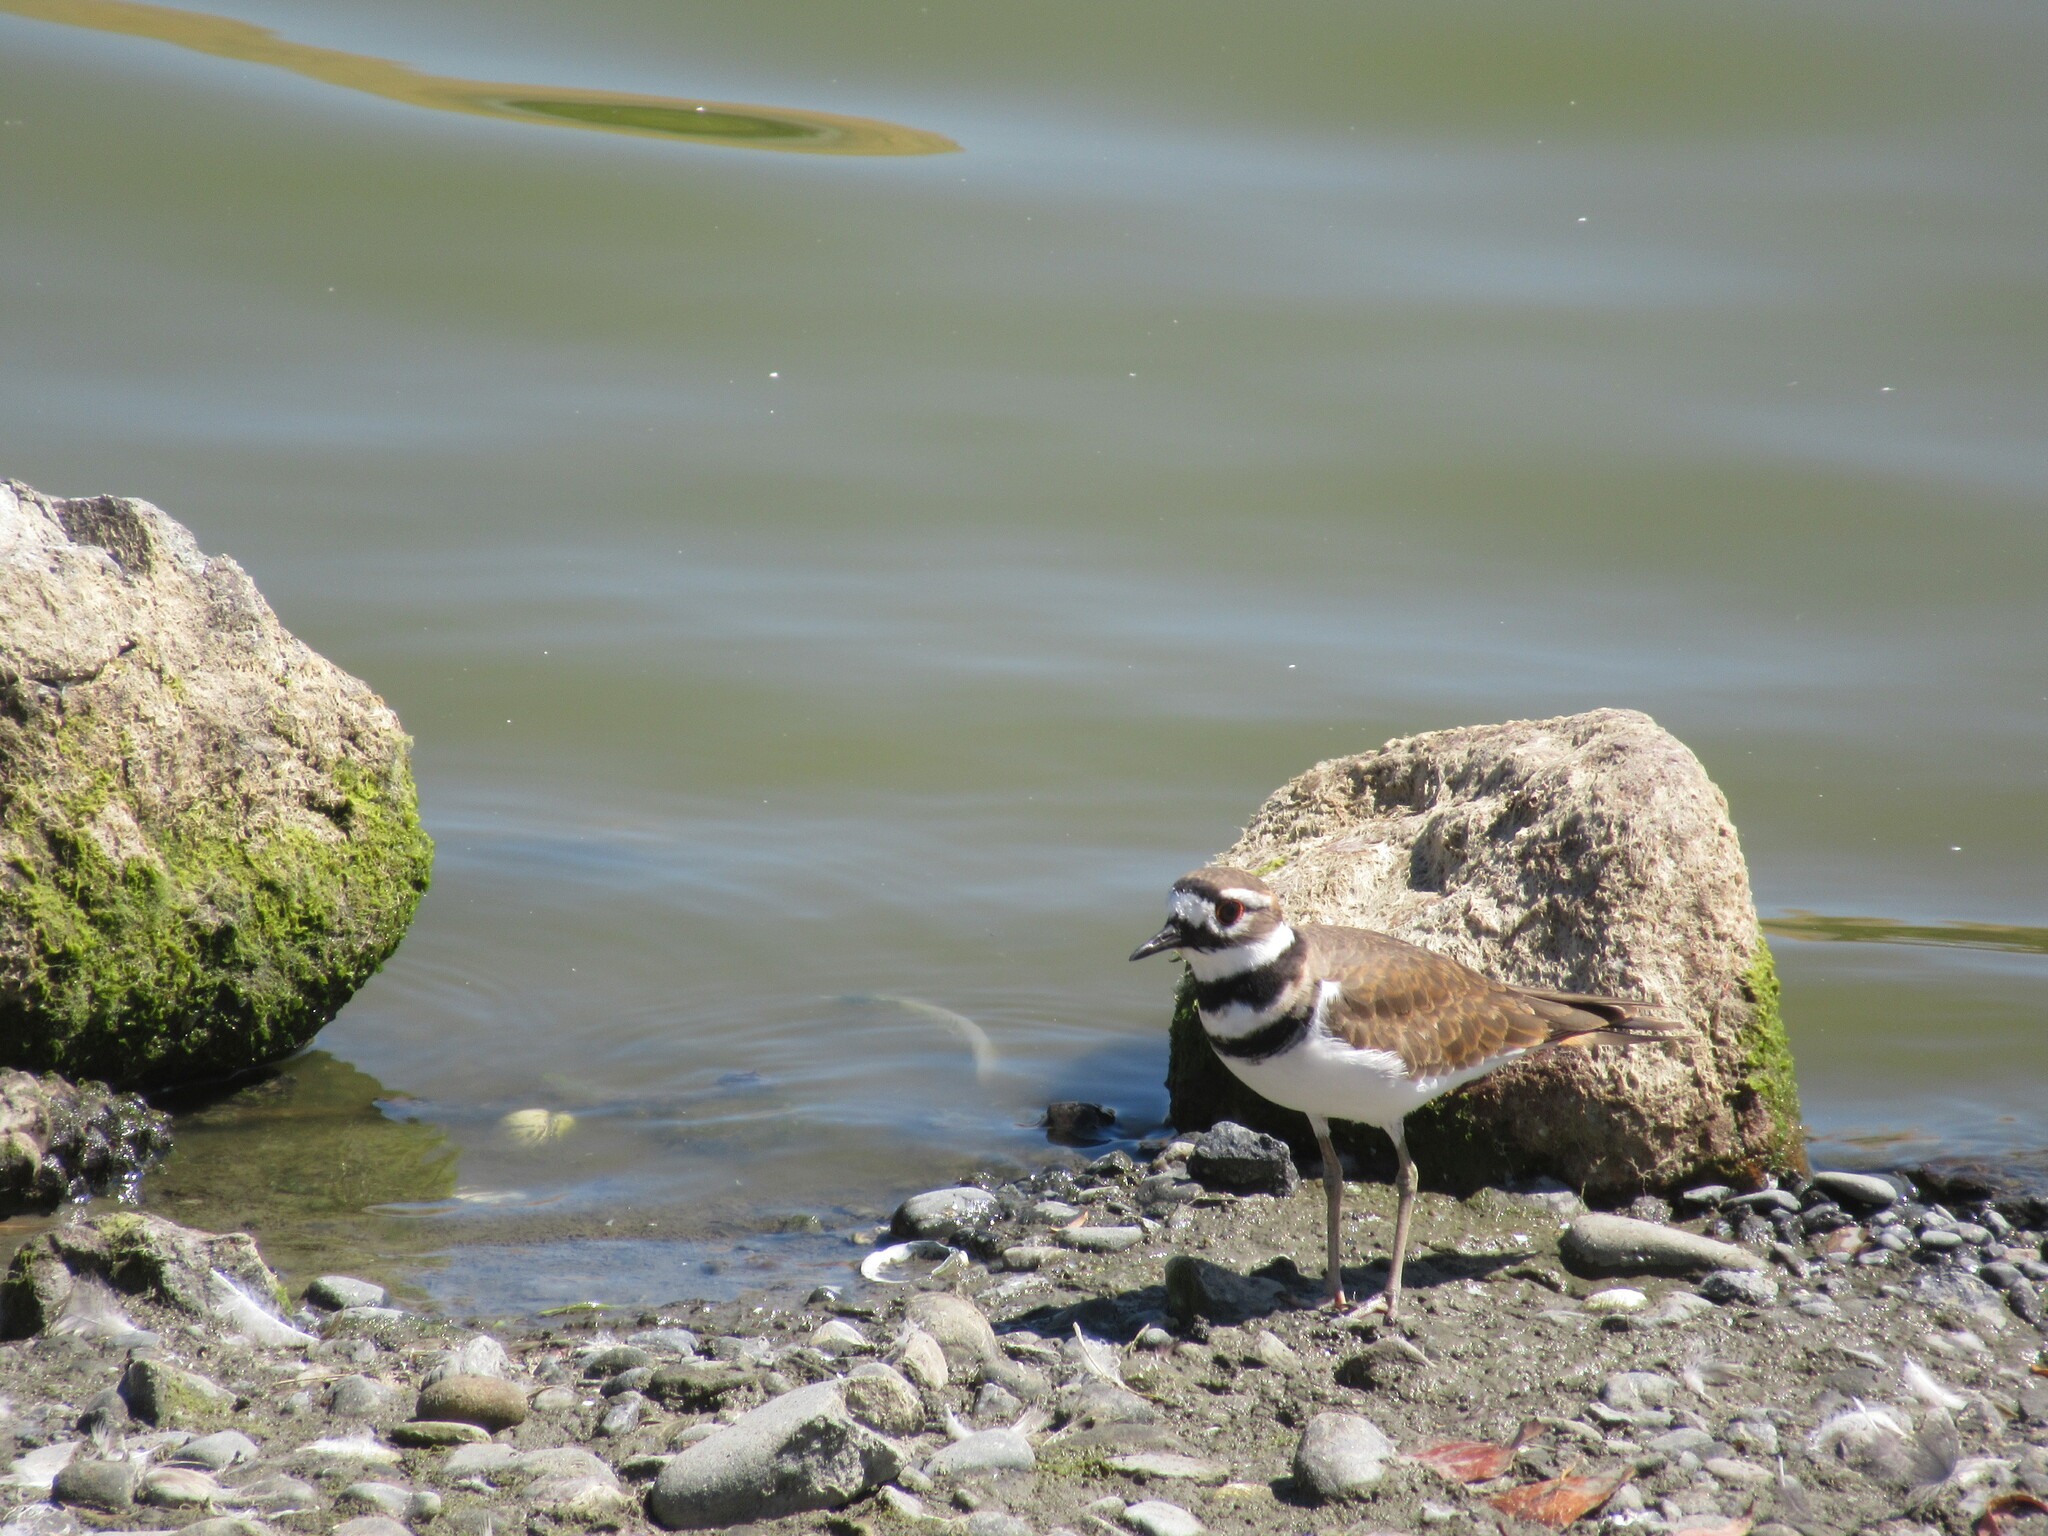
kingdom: Animalia
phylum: Chordata
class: Aves
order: Charadriiformes
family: Charadriidae
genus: Charadrius
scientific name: Charadrius vociferus
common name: Killdeer
